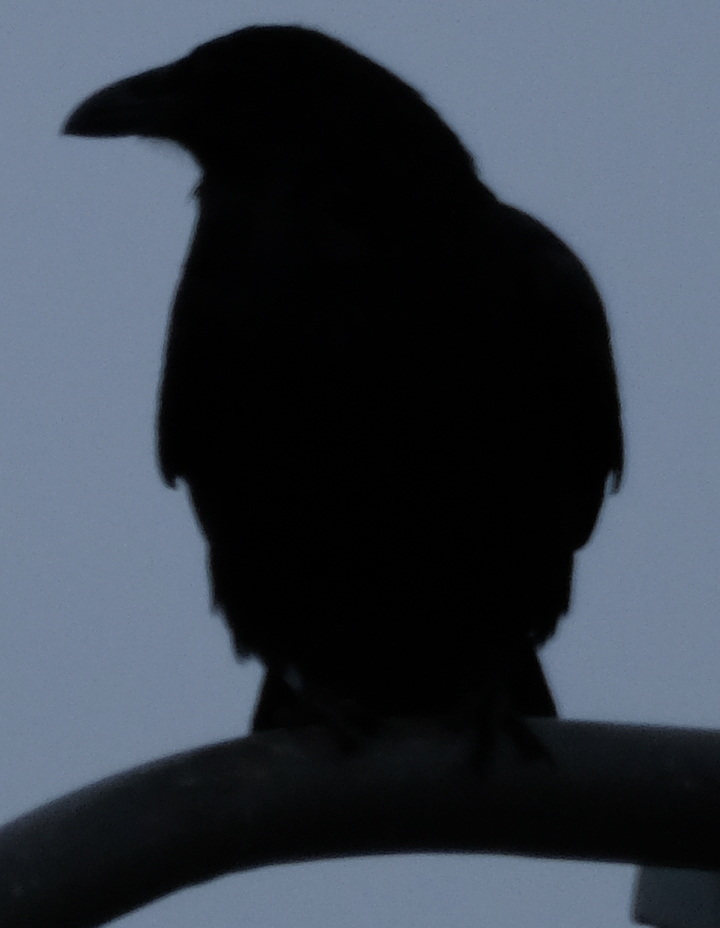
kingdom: Animalia
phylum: Chordata
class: Aves
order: Passeriformes
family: Corvidae
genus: Corvus
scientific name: Corvus corax
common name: Common raven
